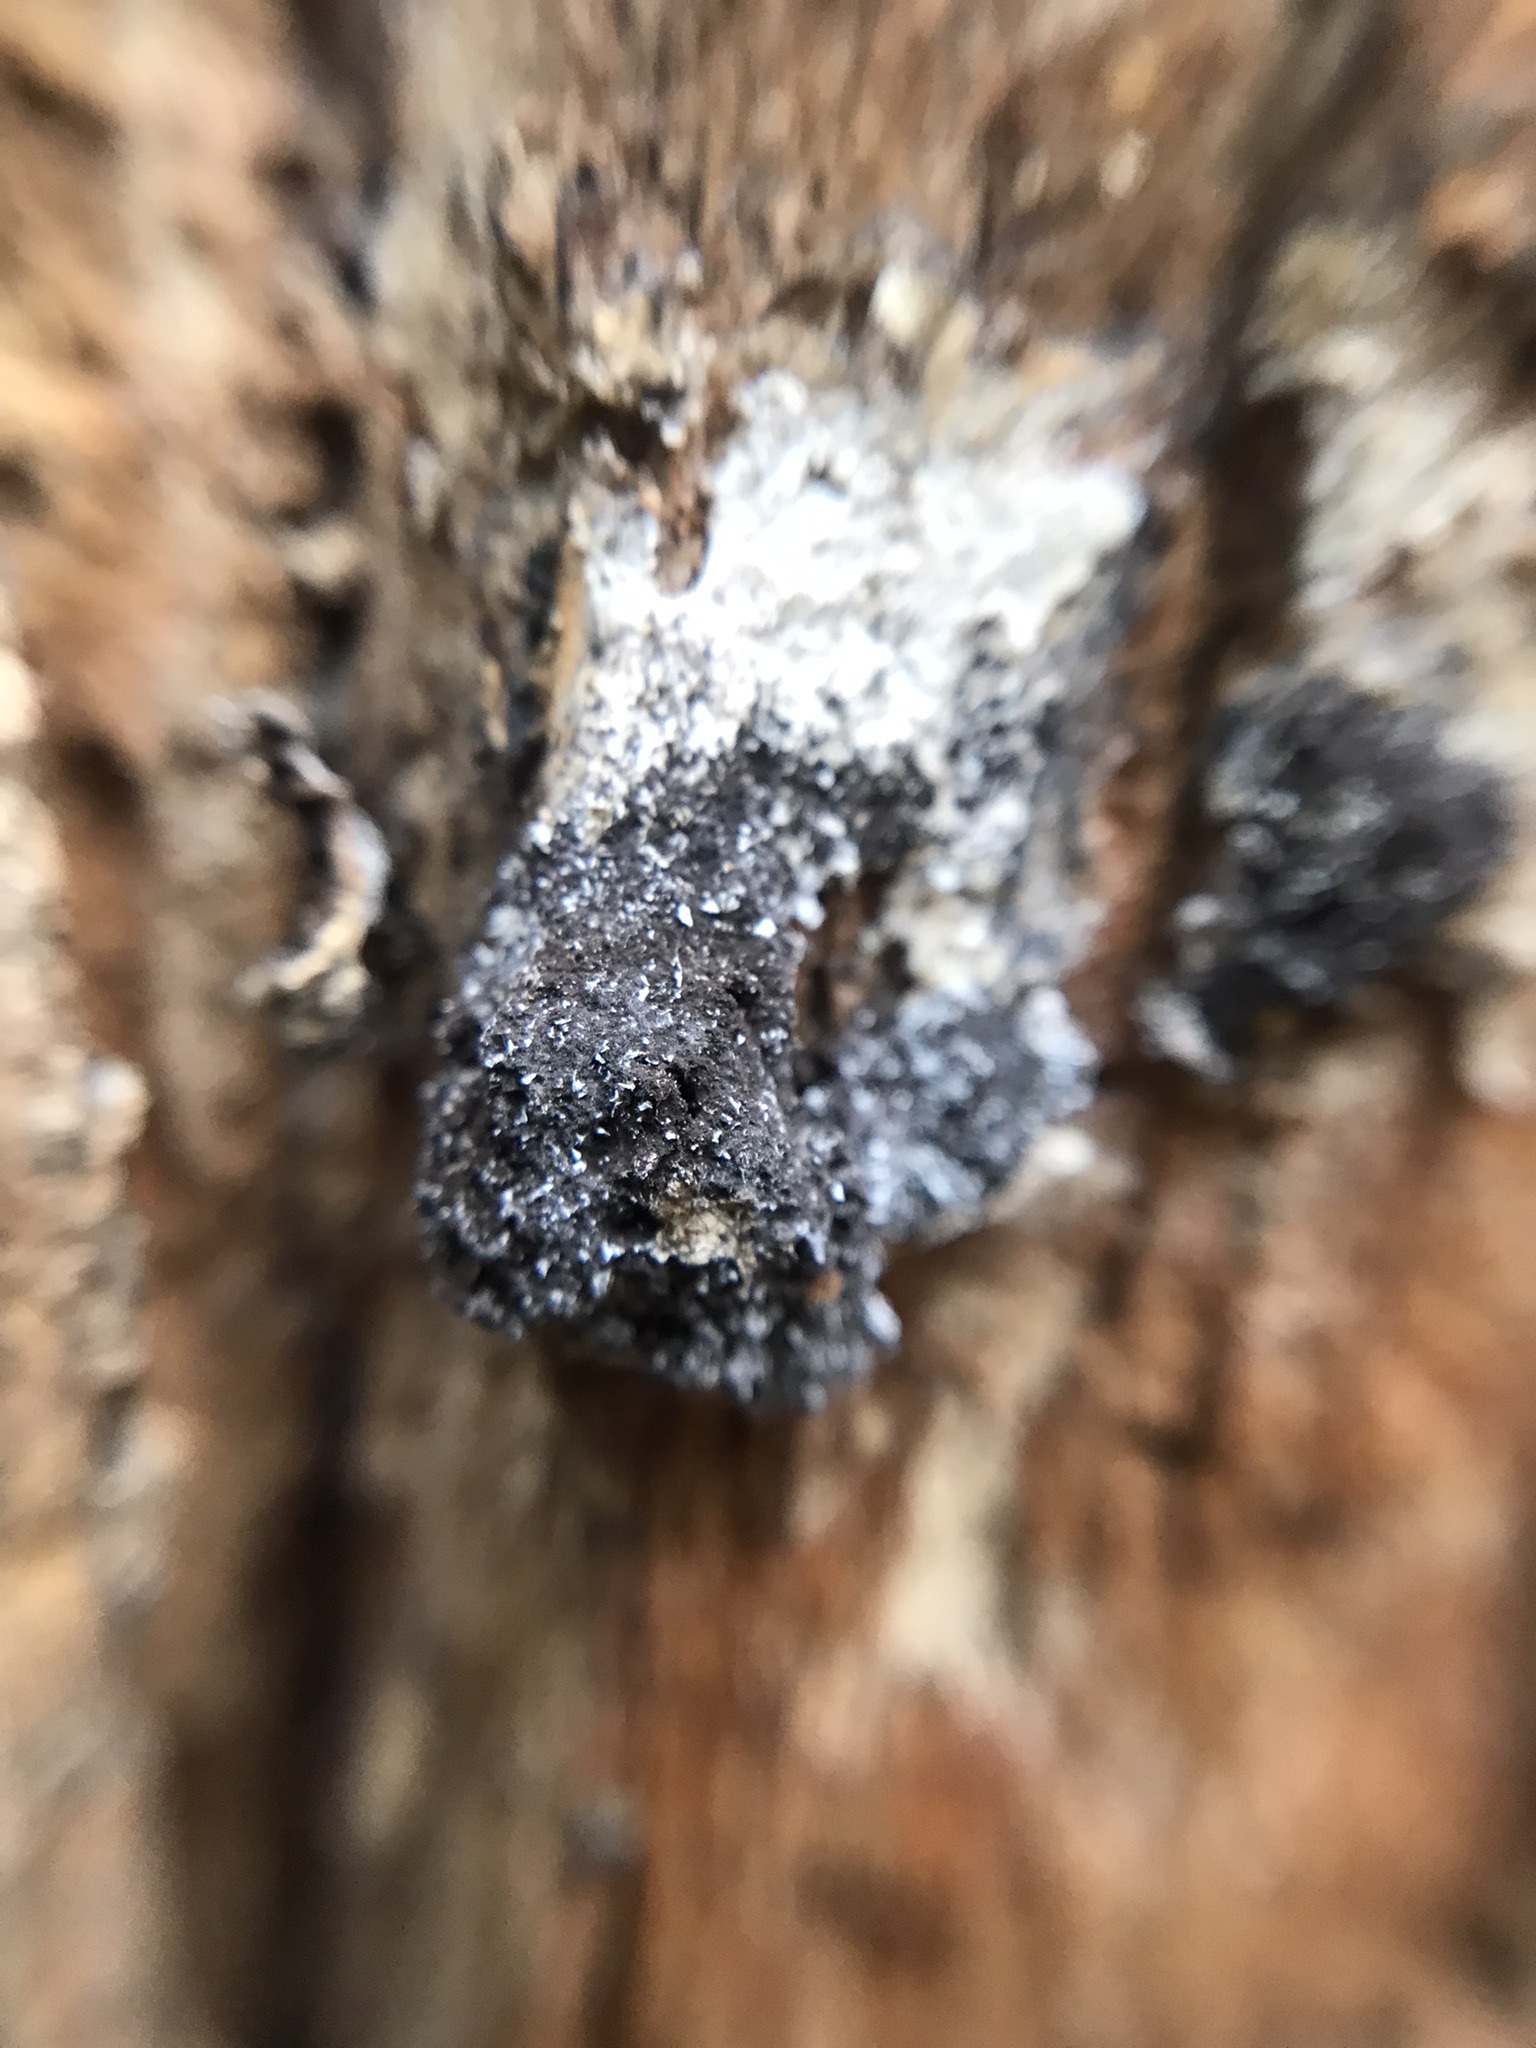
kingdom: Protozoa
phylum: Mycetozoa
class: Myxomycetes
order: Physarales
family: Physaraceae
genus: Fuligo
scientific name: Fuligo septica
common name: Dog vomit slime mold
